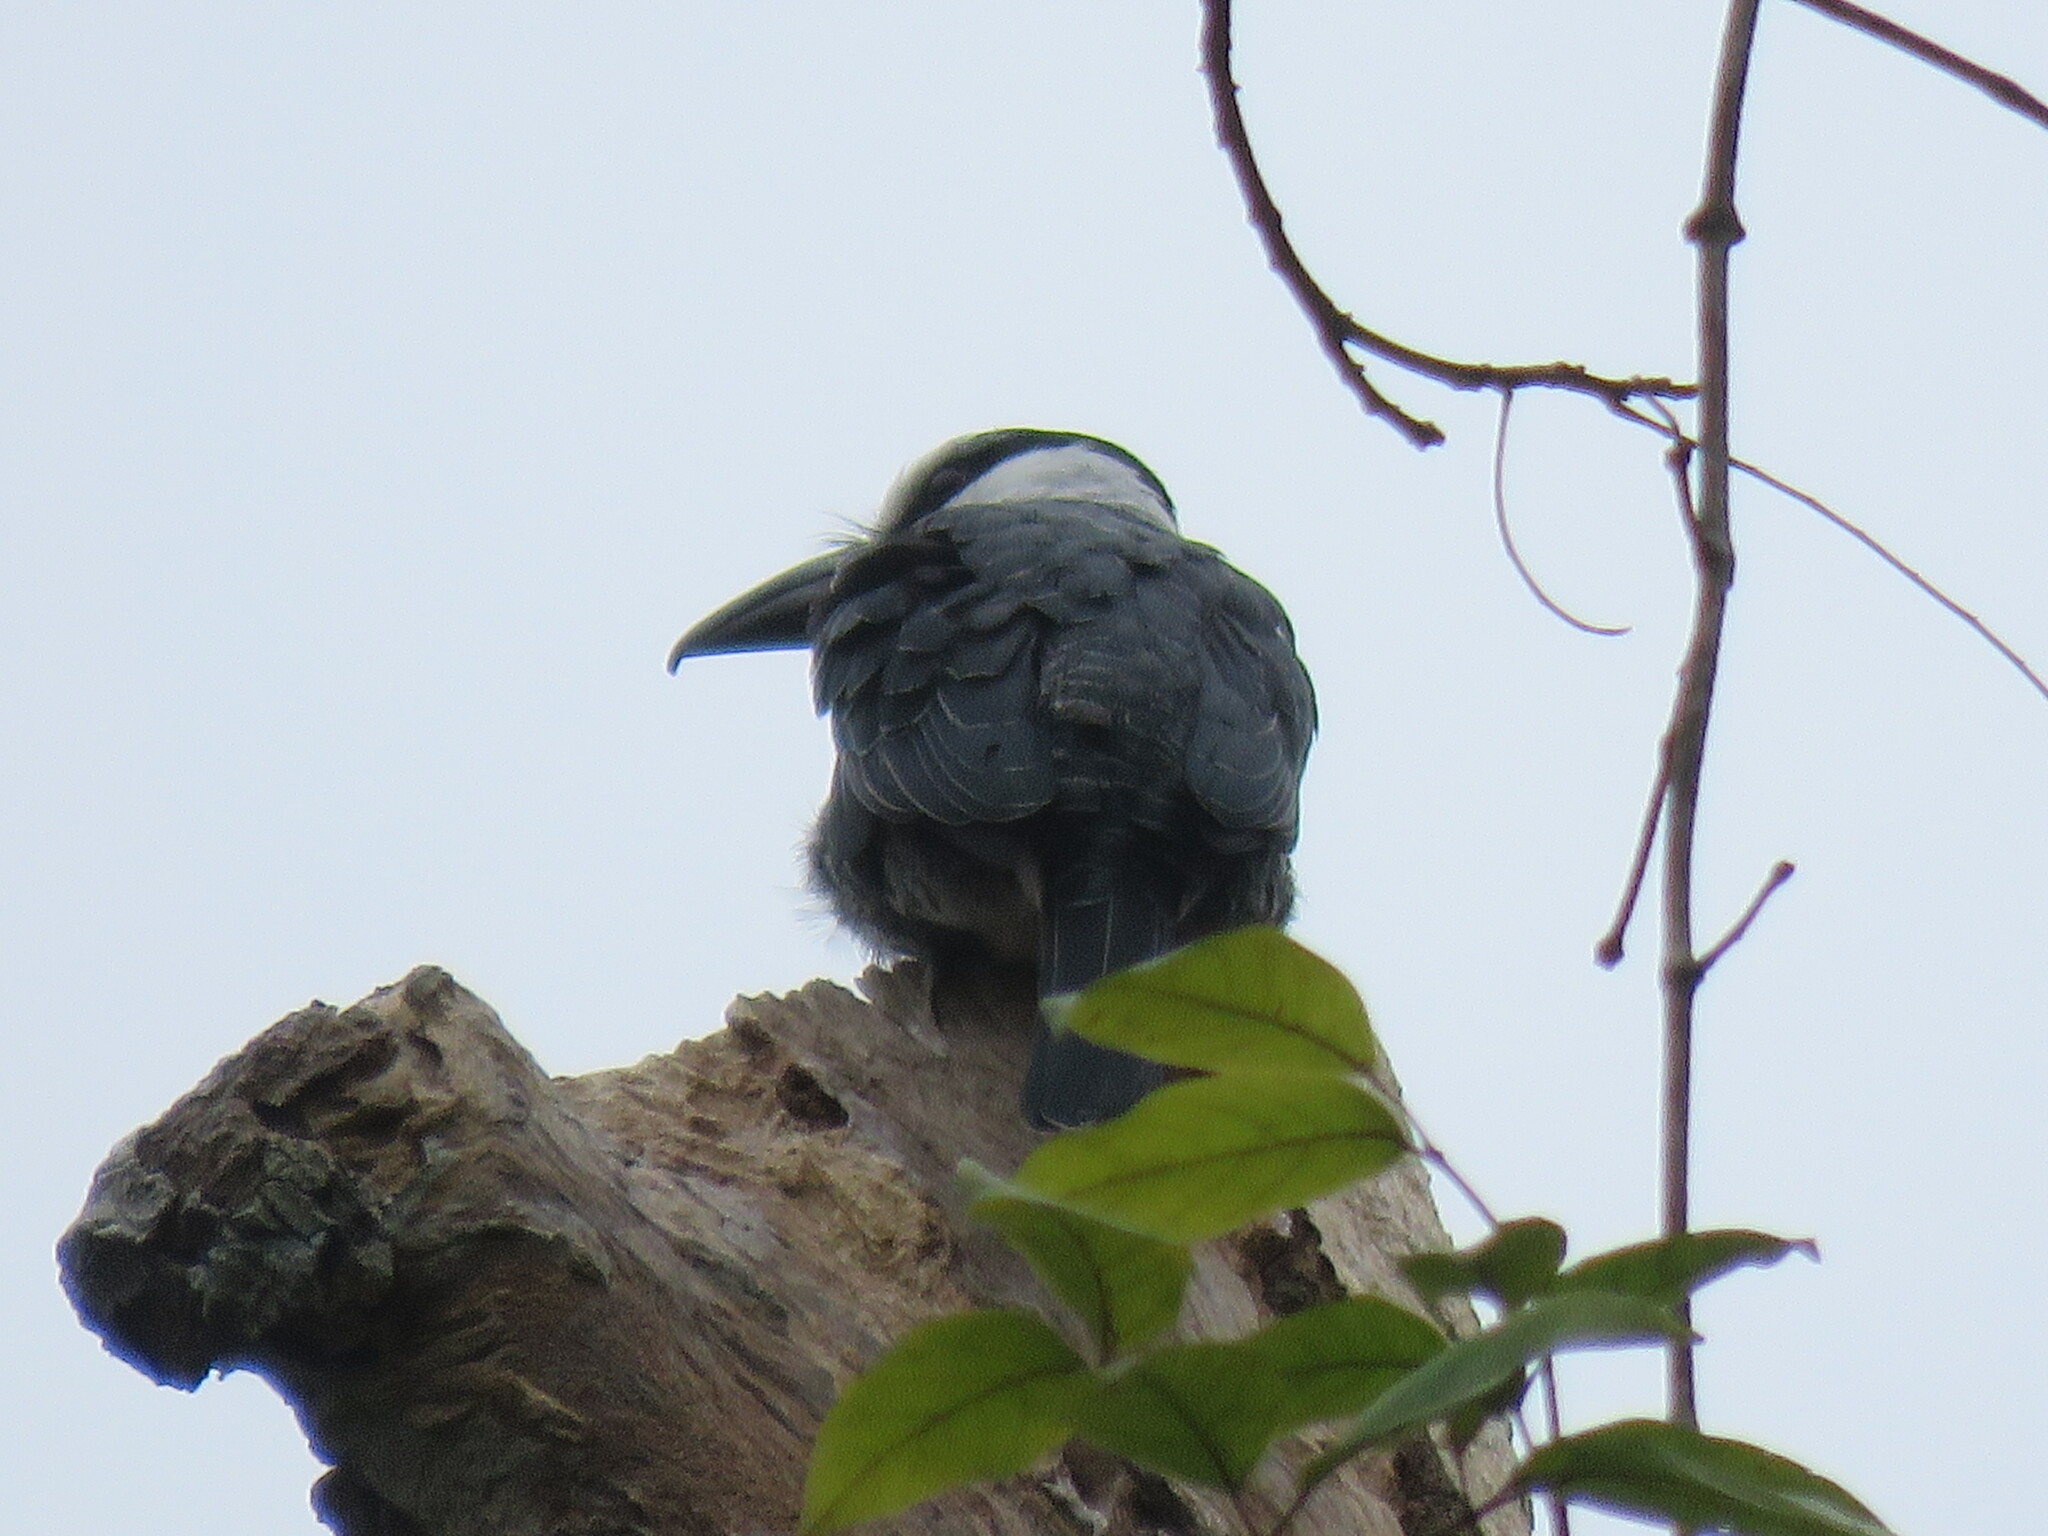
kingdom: Animalia
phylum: Chordata
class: Aves
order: Piciformes
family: Bucconidae
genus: Notharchus
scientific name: Notharchus hyperrhynchus
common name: White-necked puffbird
